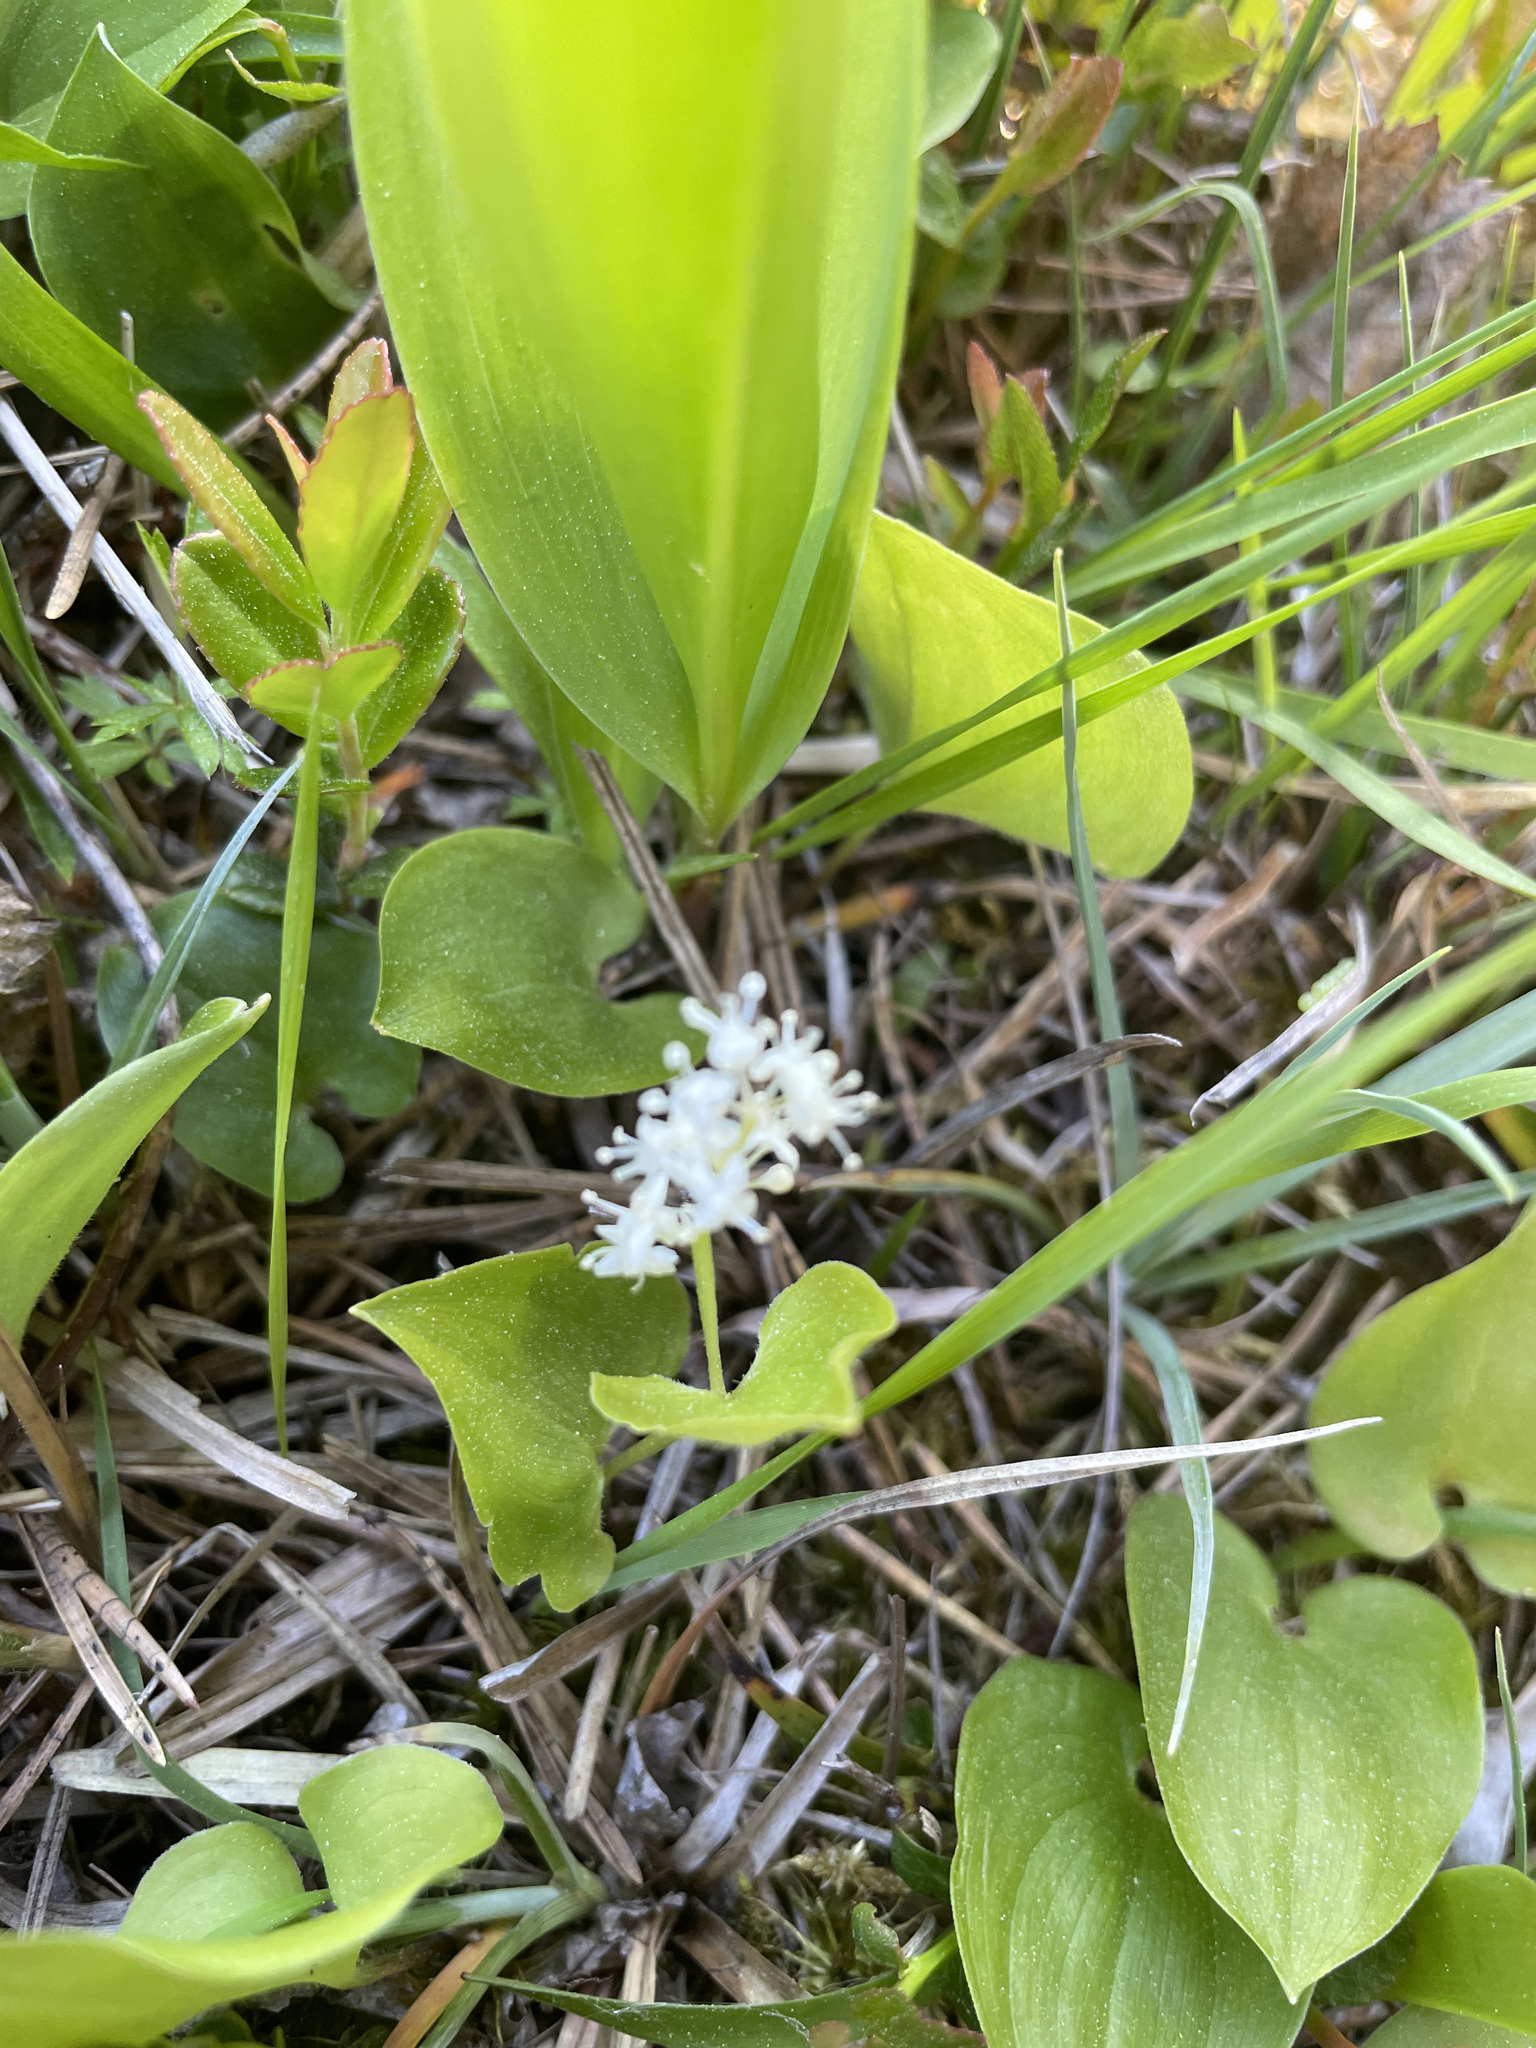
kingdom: Plantae
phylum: Tracheophyta
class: Liliopsida
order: Asparagales
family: Asparagaceae
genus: Maianthemum
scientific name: Maianthemum bifolium
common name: May lily
